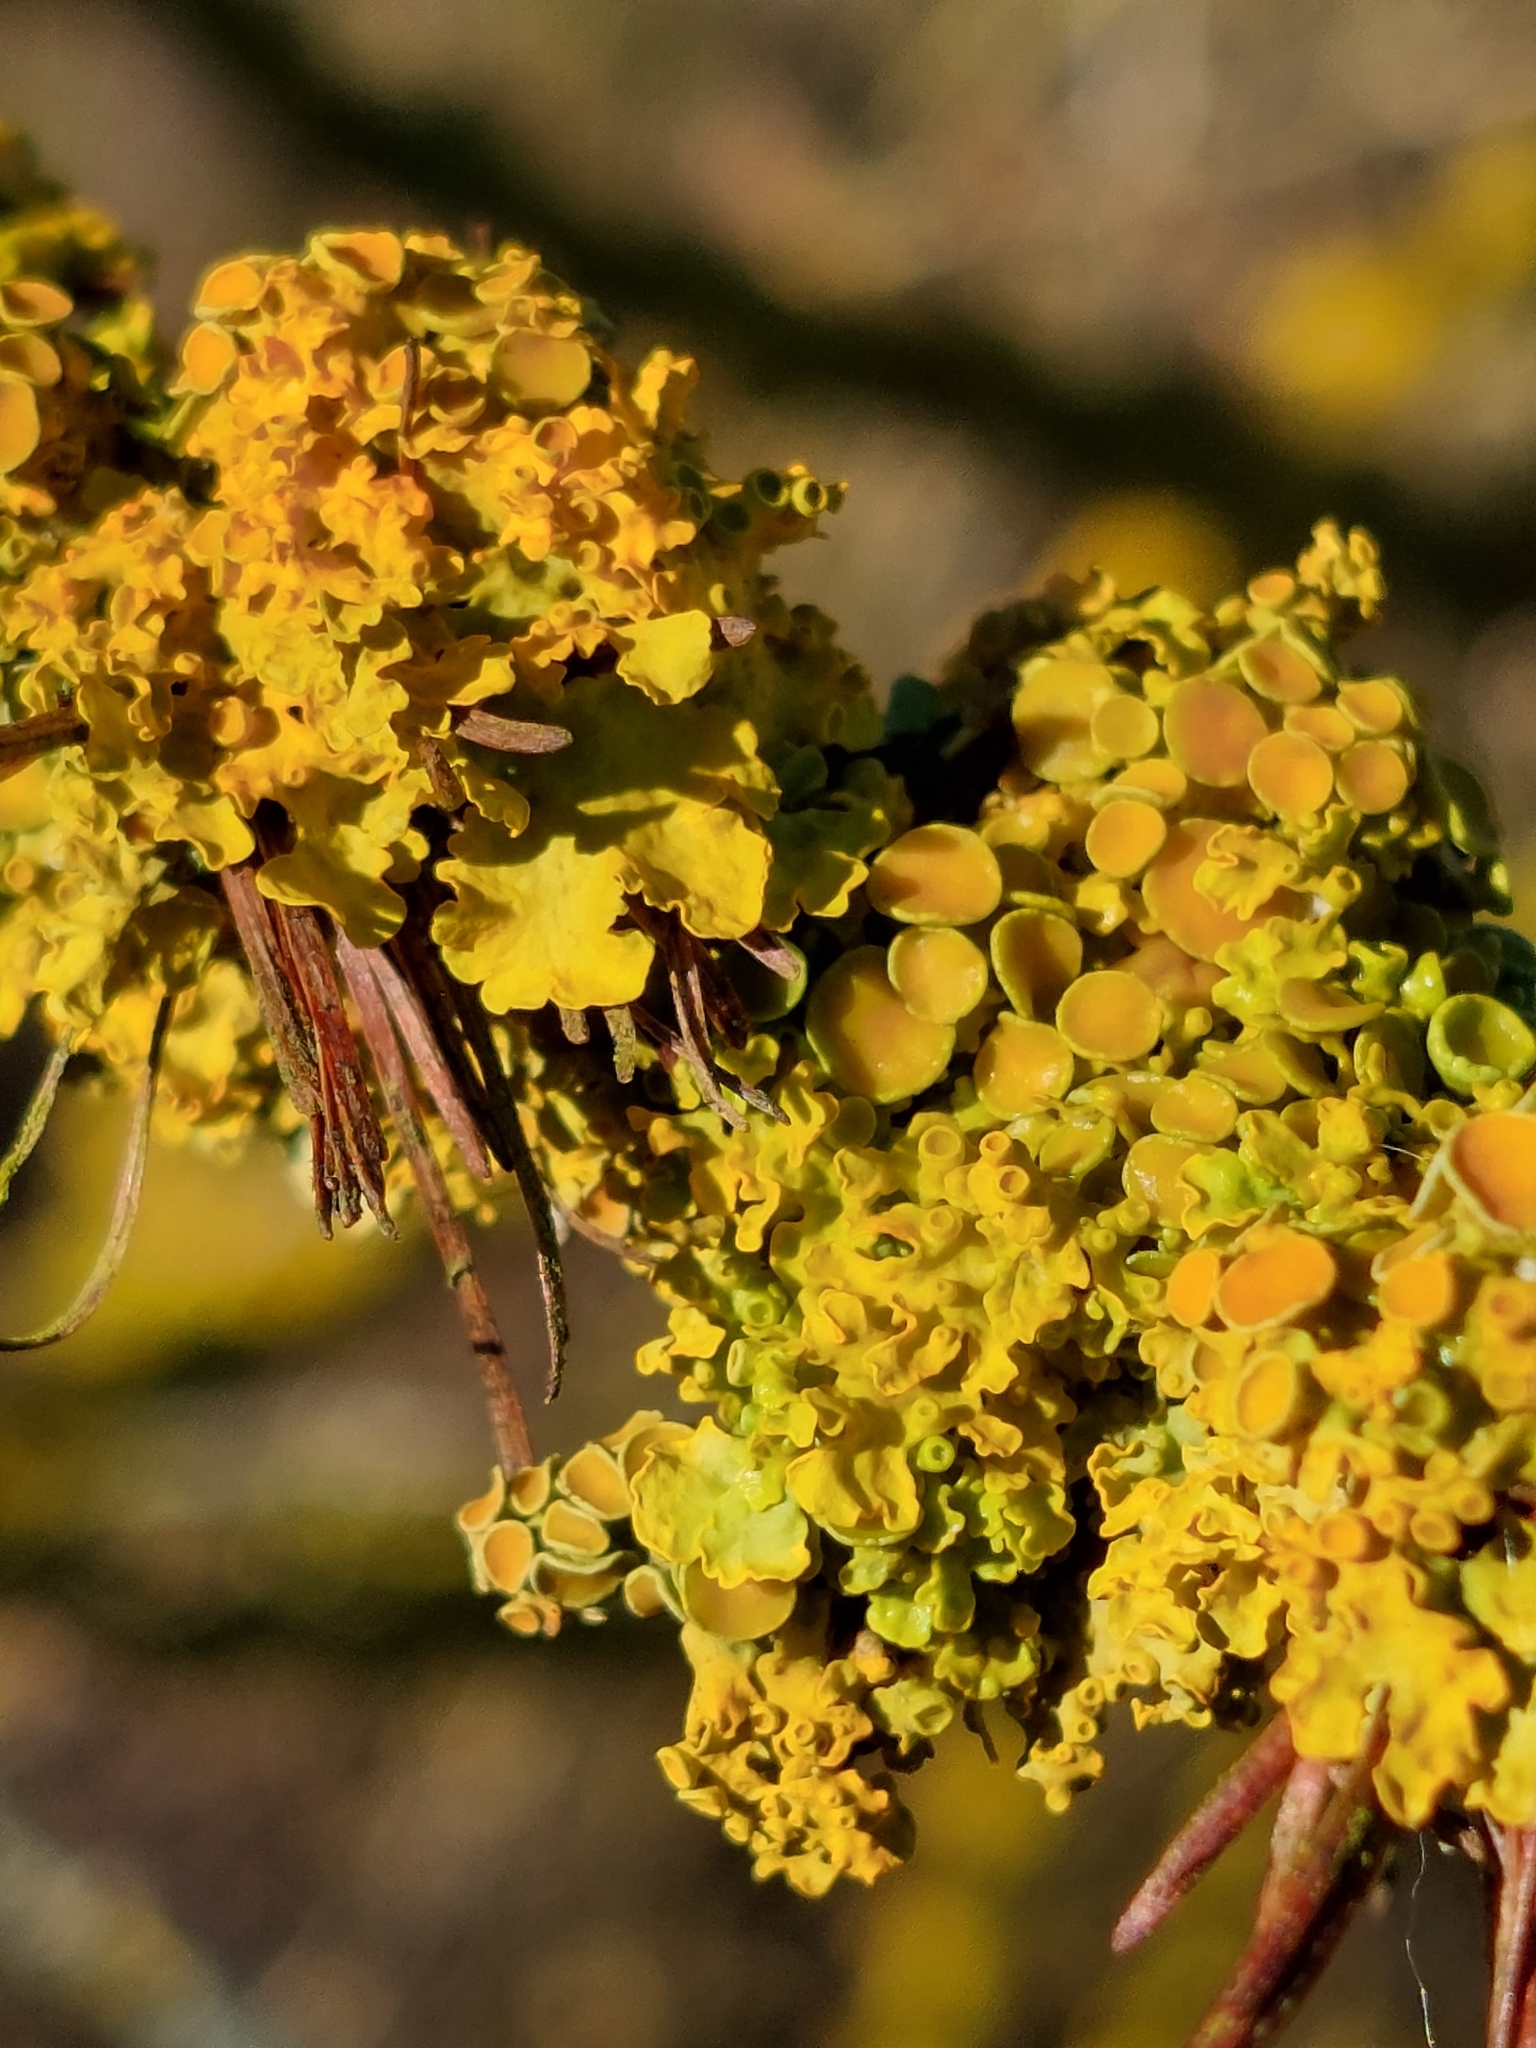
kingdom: Fungi
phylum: Ascomycota
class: Lecanoromycetes
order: Teloschistales
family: Teloschistaceae
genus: Xanthoria
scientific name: Xanthoria parietina
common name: Common orange lichen
